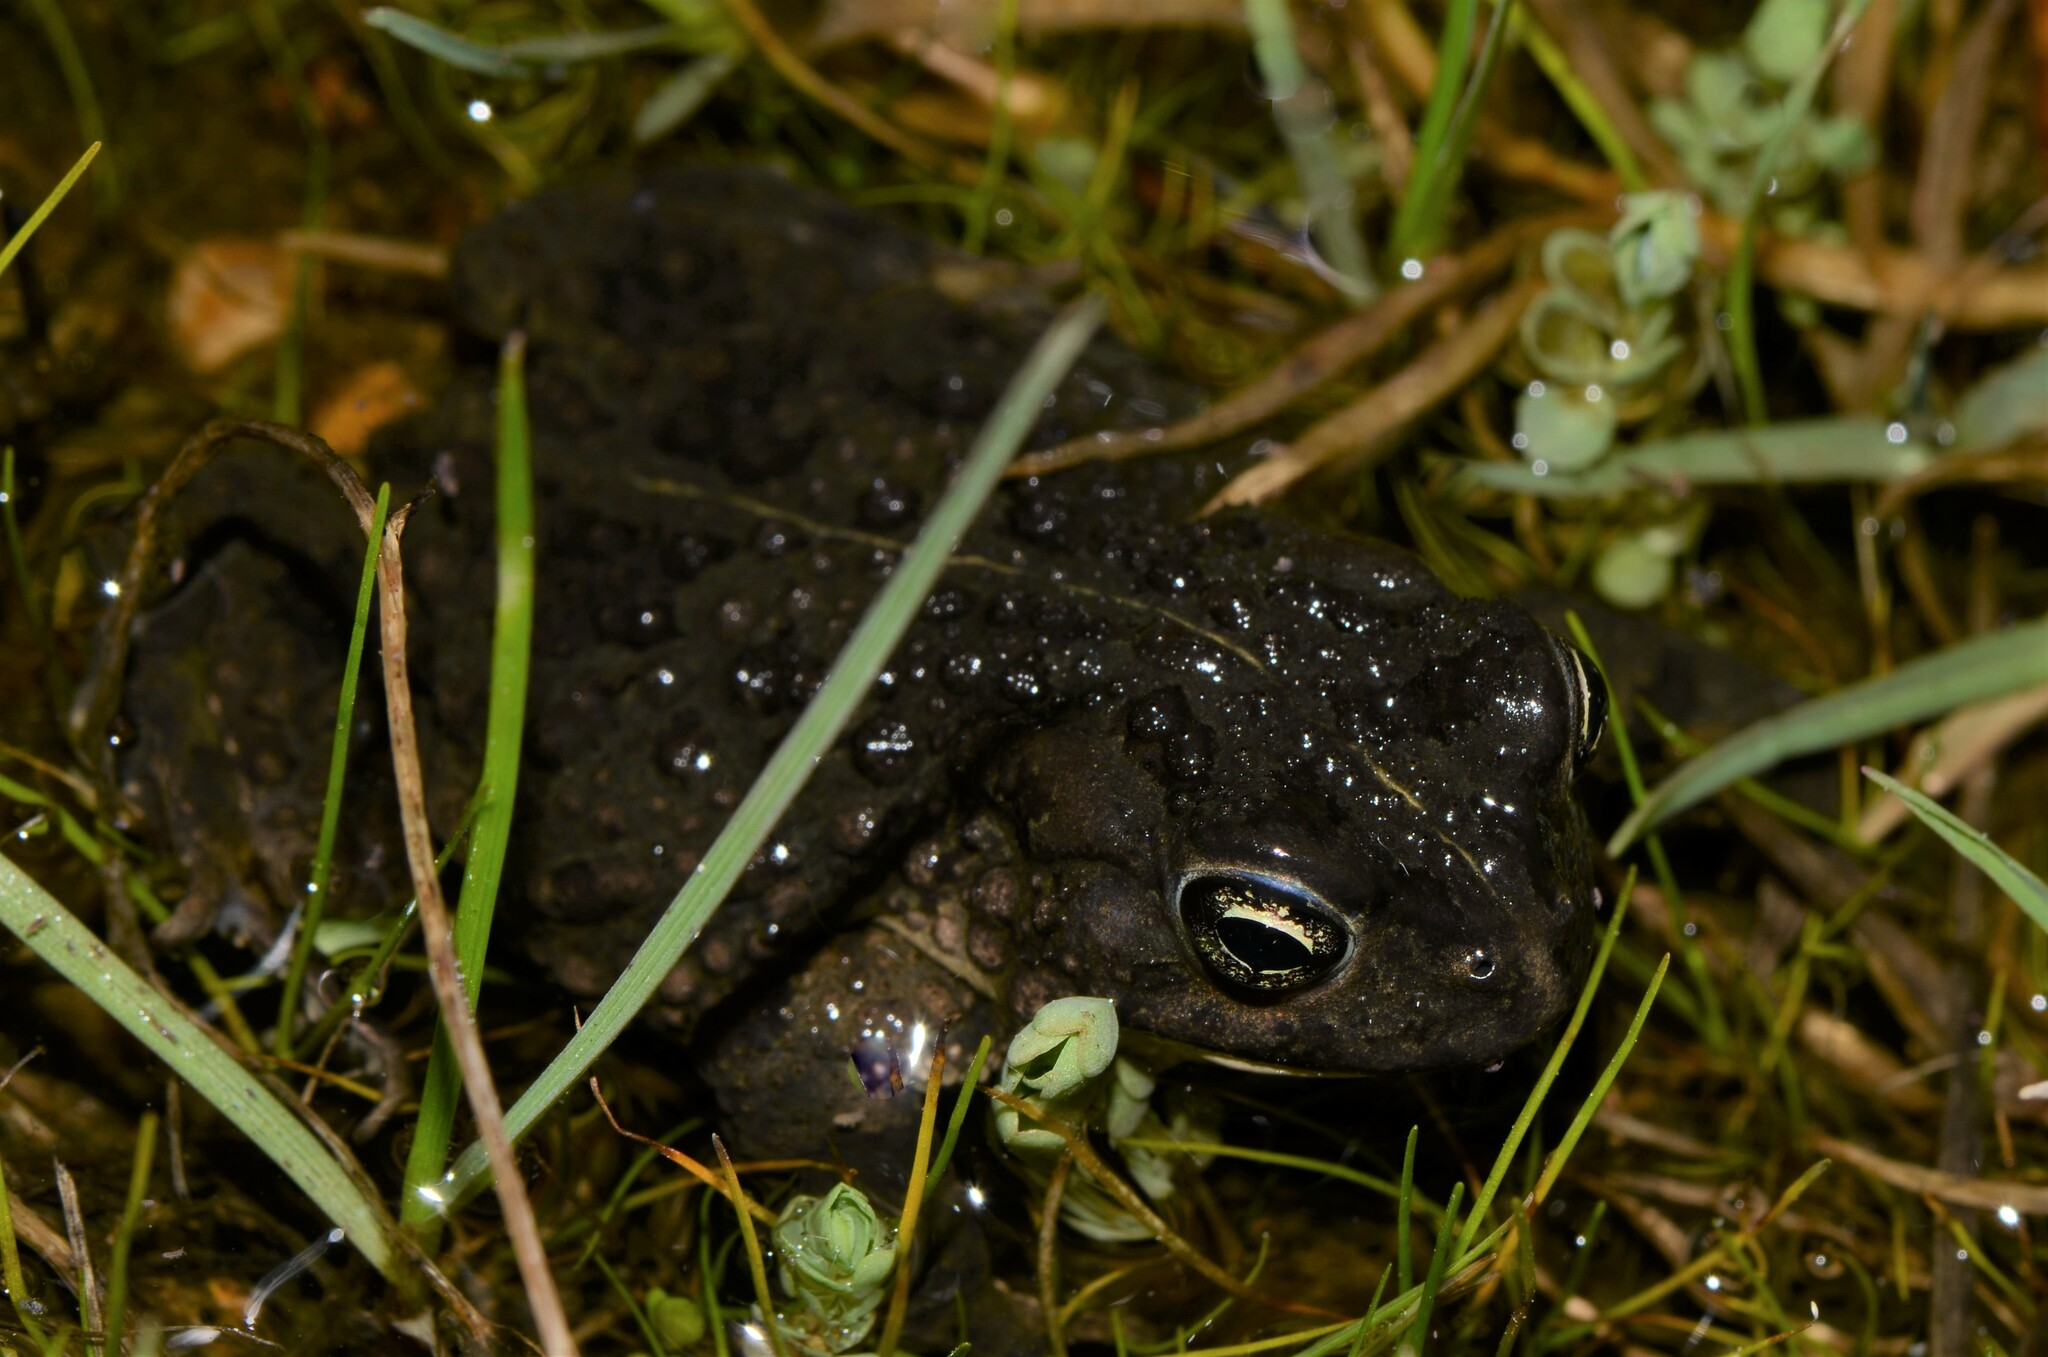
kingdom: Animalia
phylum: Chordata
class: Amphibia
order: Anura
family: Bufonidae
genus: Vandijkophrynus
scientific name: Vandijkophrynus angusticeps
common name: Sand toad
